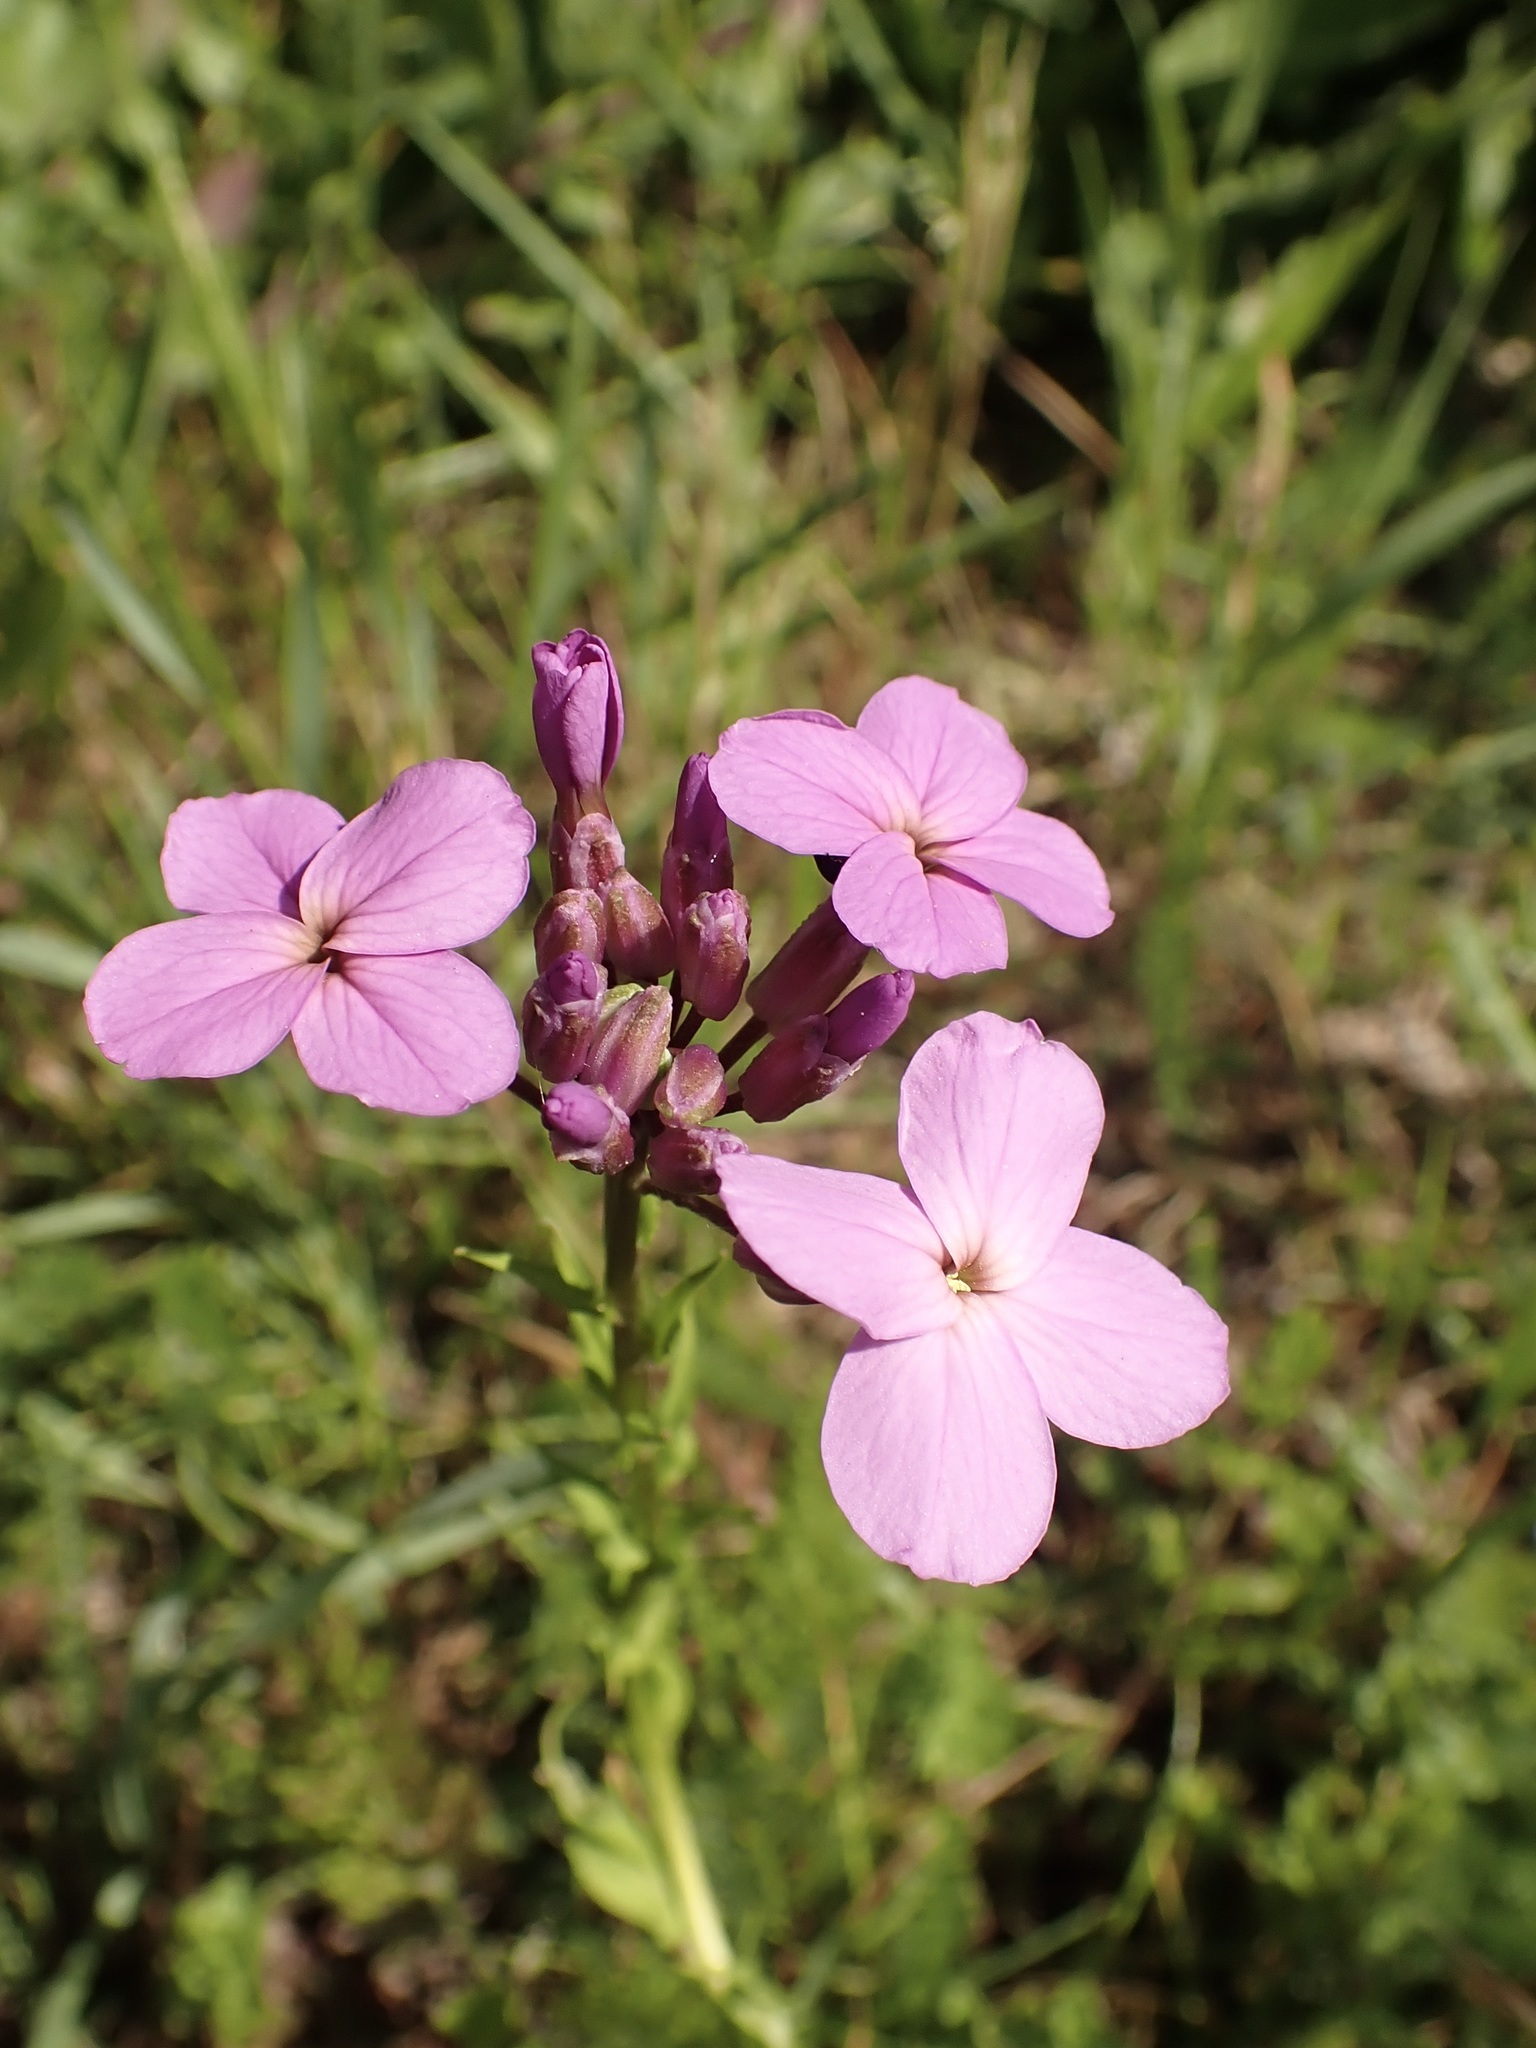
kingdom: Plantae
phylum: Tracheophyta
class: Magnoliopsida
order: Brassicales
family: Brassicaceae
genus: Hesperis
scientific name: Hesperis matronalis
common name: Dame's-violet
